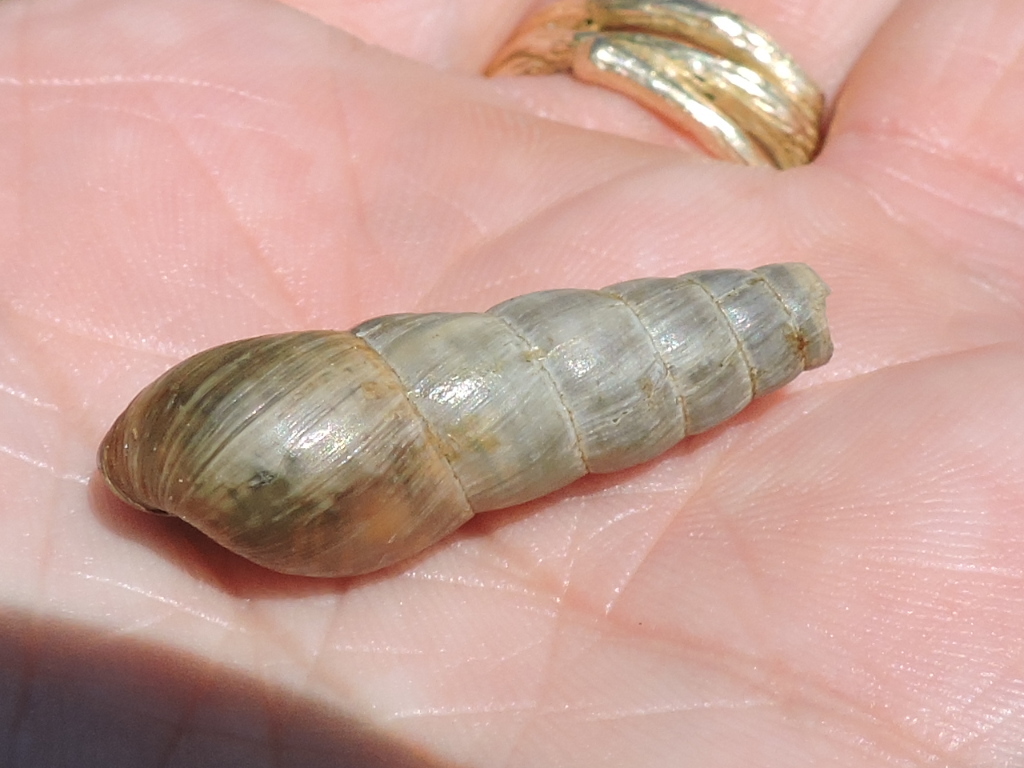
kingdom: Animalia
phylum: Mollusca
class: Gastropoda
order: Stylommatophora
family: Achatinidae
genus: Rumina
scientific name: Rumina decollata
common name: Decollate snail
